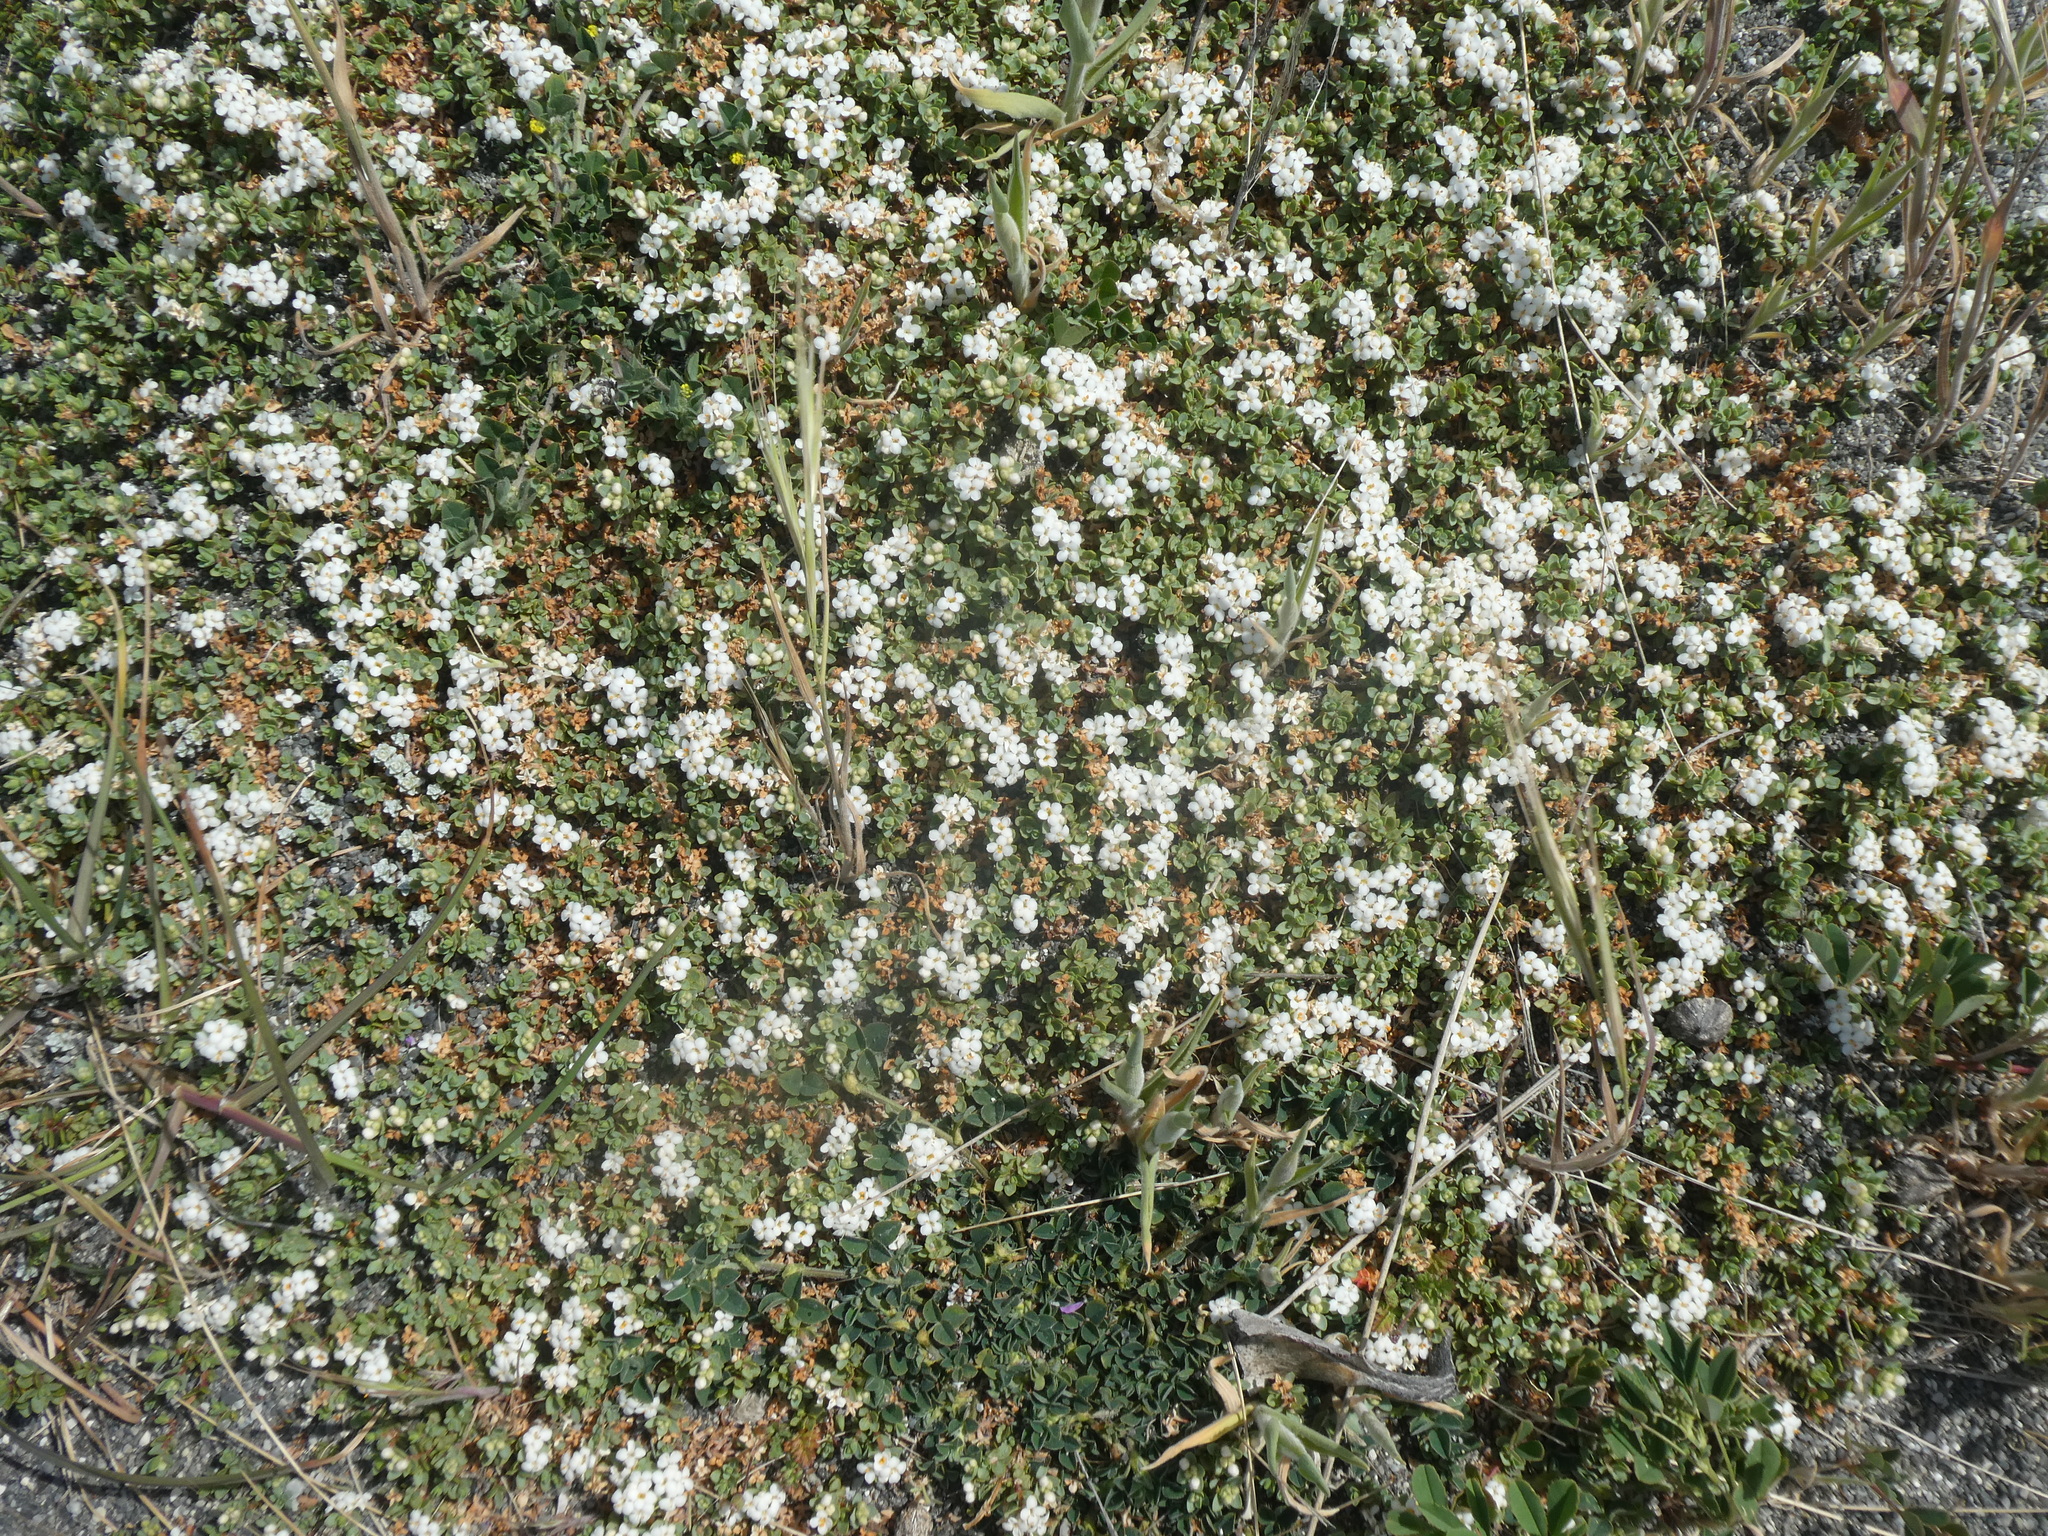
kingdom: Plantae
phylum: Tracheophyta
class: Magnoliopsida
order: Malvales
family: Thymelaeaceae
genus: Pimelea
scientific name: Pimelea prostrata
